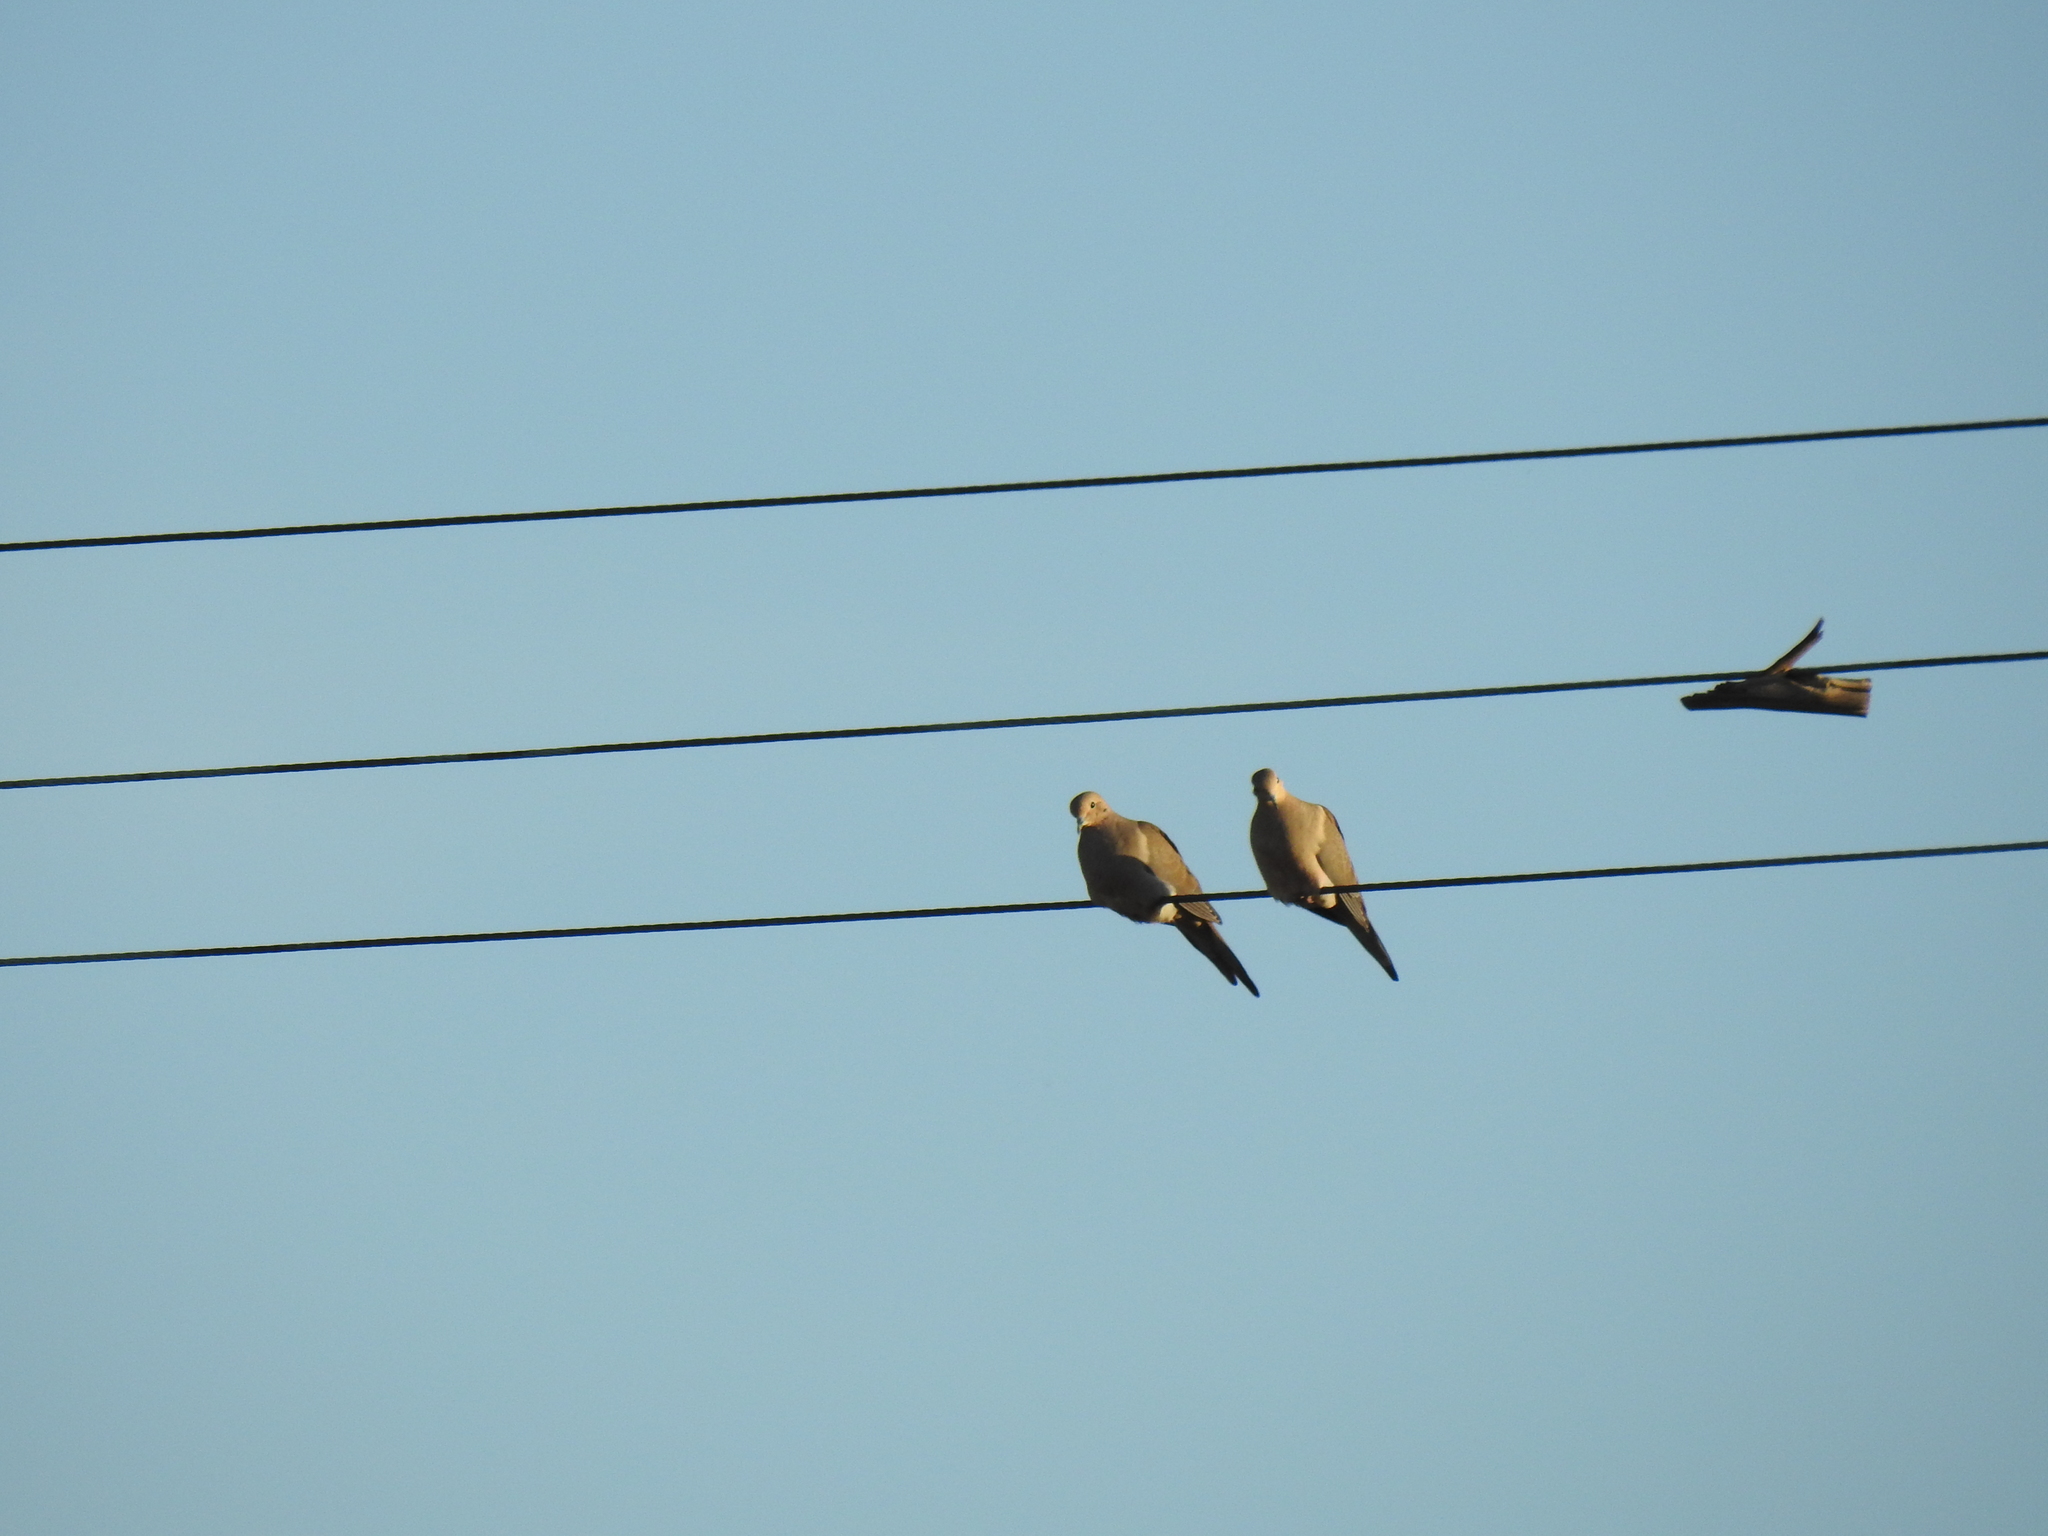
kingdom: Animalia
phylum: Chordata
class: Aves
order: Columbiformes
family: Columbidae
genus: Zenaida
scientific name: Zenaida macroura
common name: Mourning dove
